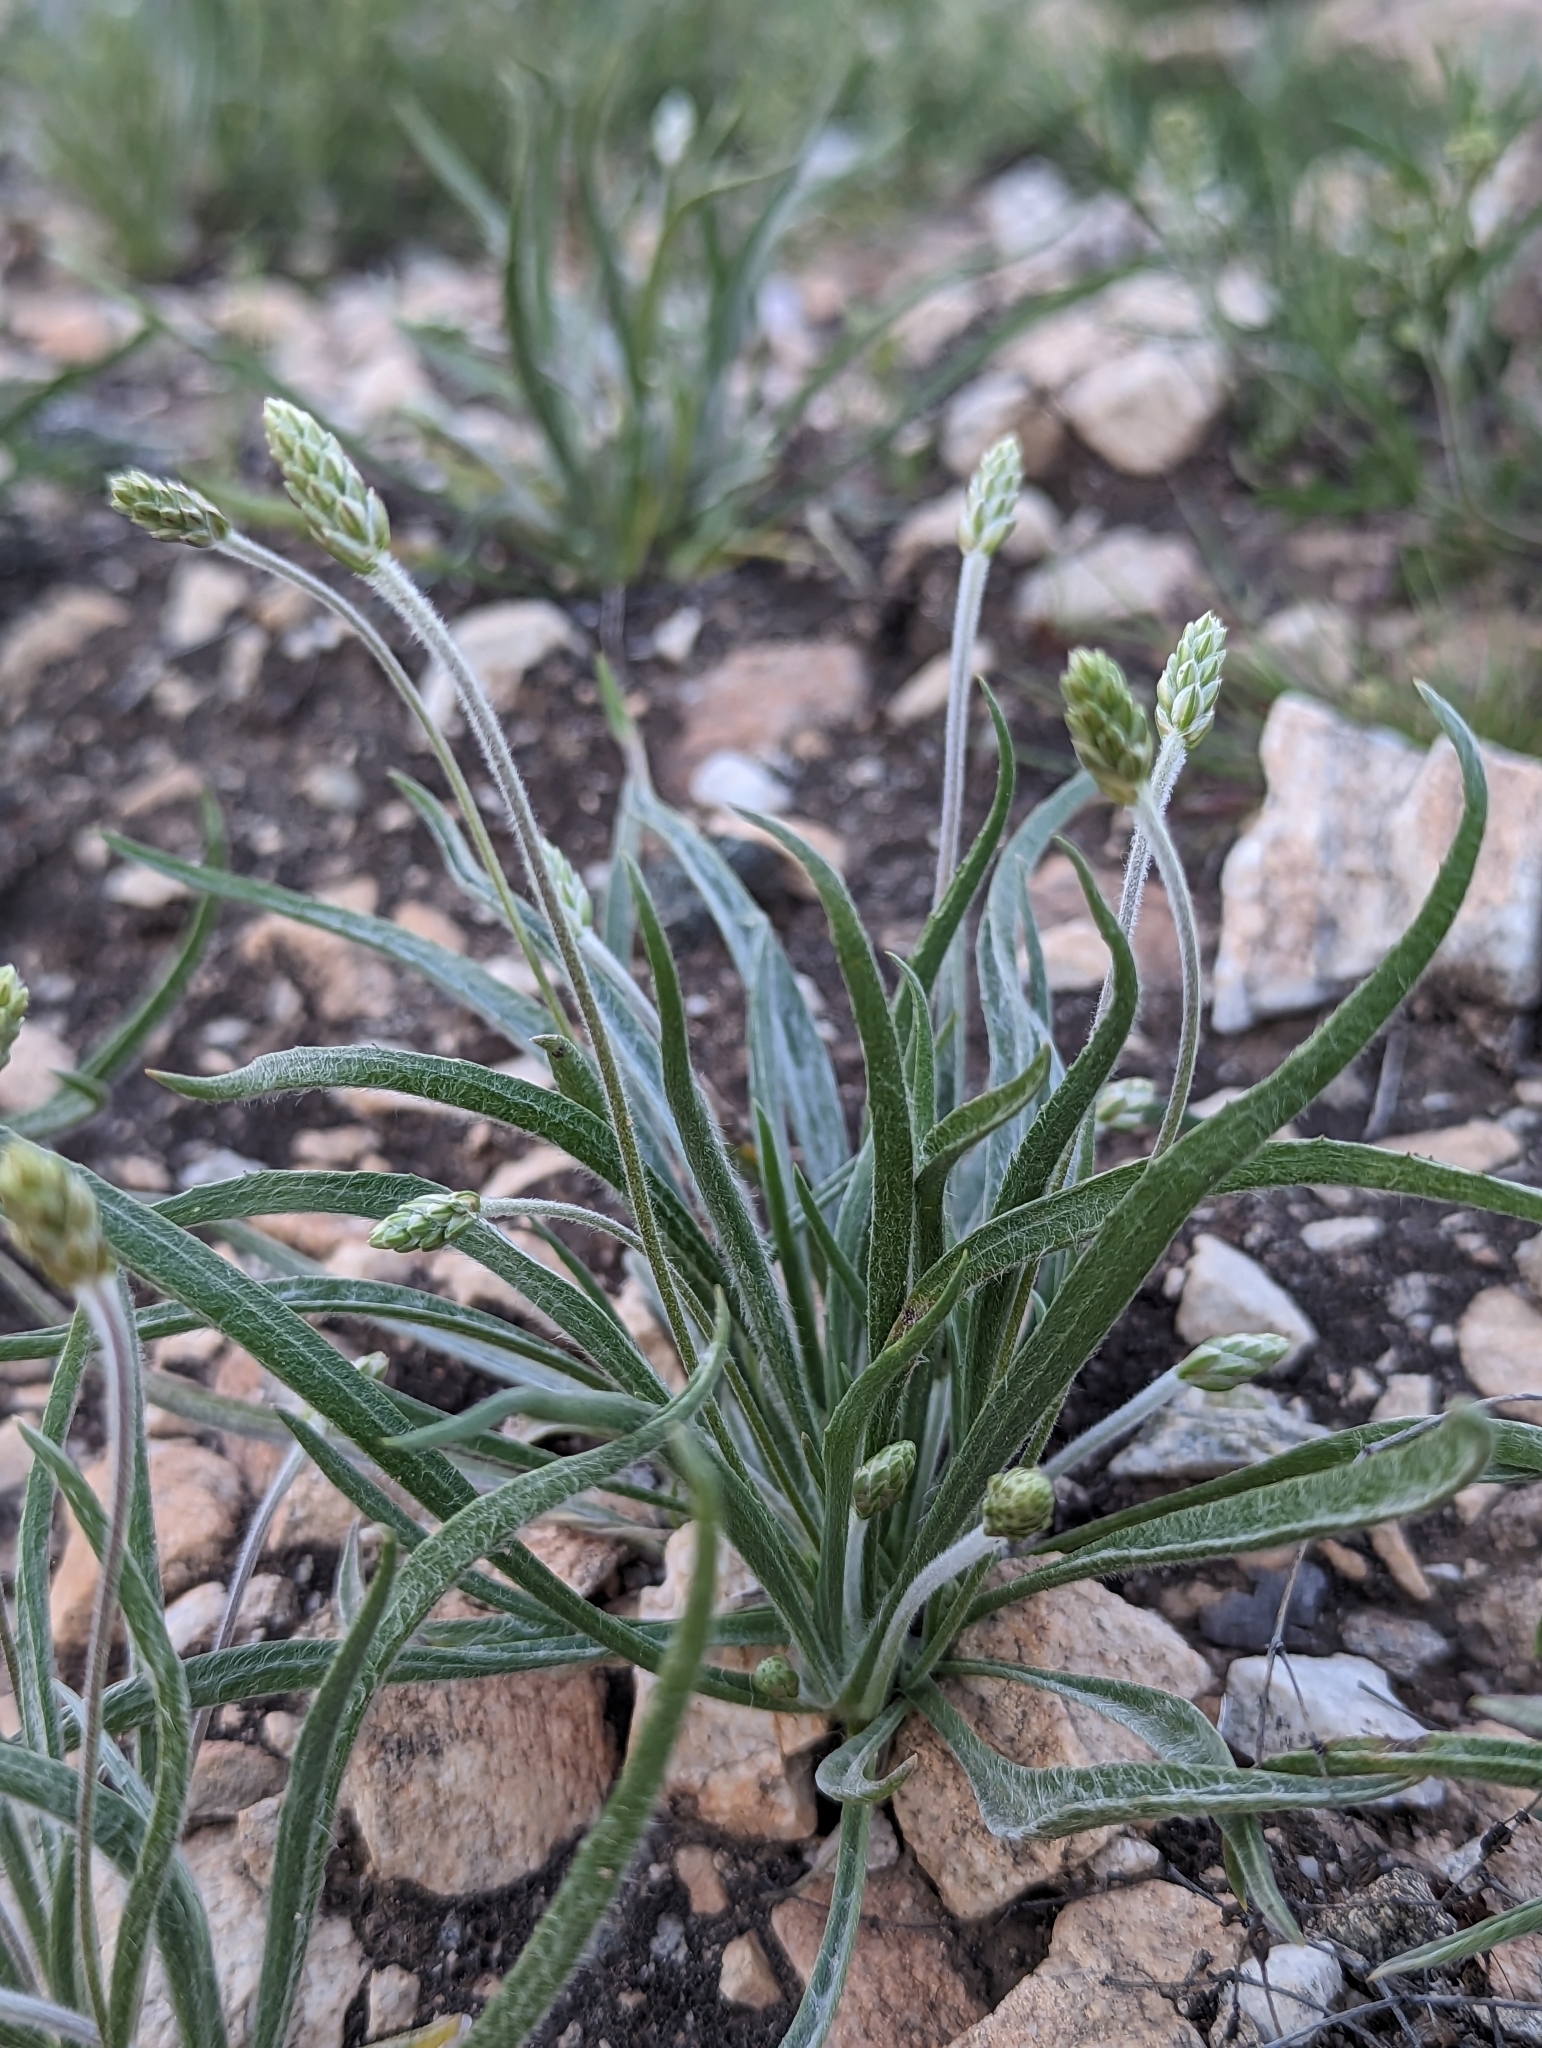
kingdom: Plantae
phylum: Tracheophyta
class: Magnoliopsida
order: Lamiales
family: Plantaginaceae
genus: Plantago
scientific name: Plantago ovata
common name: Blond plantain
